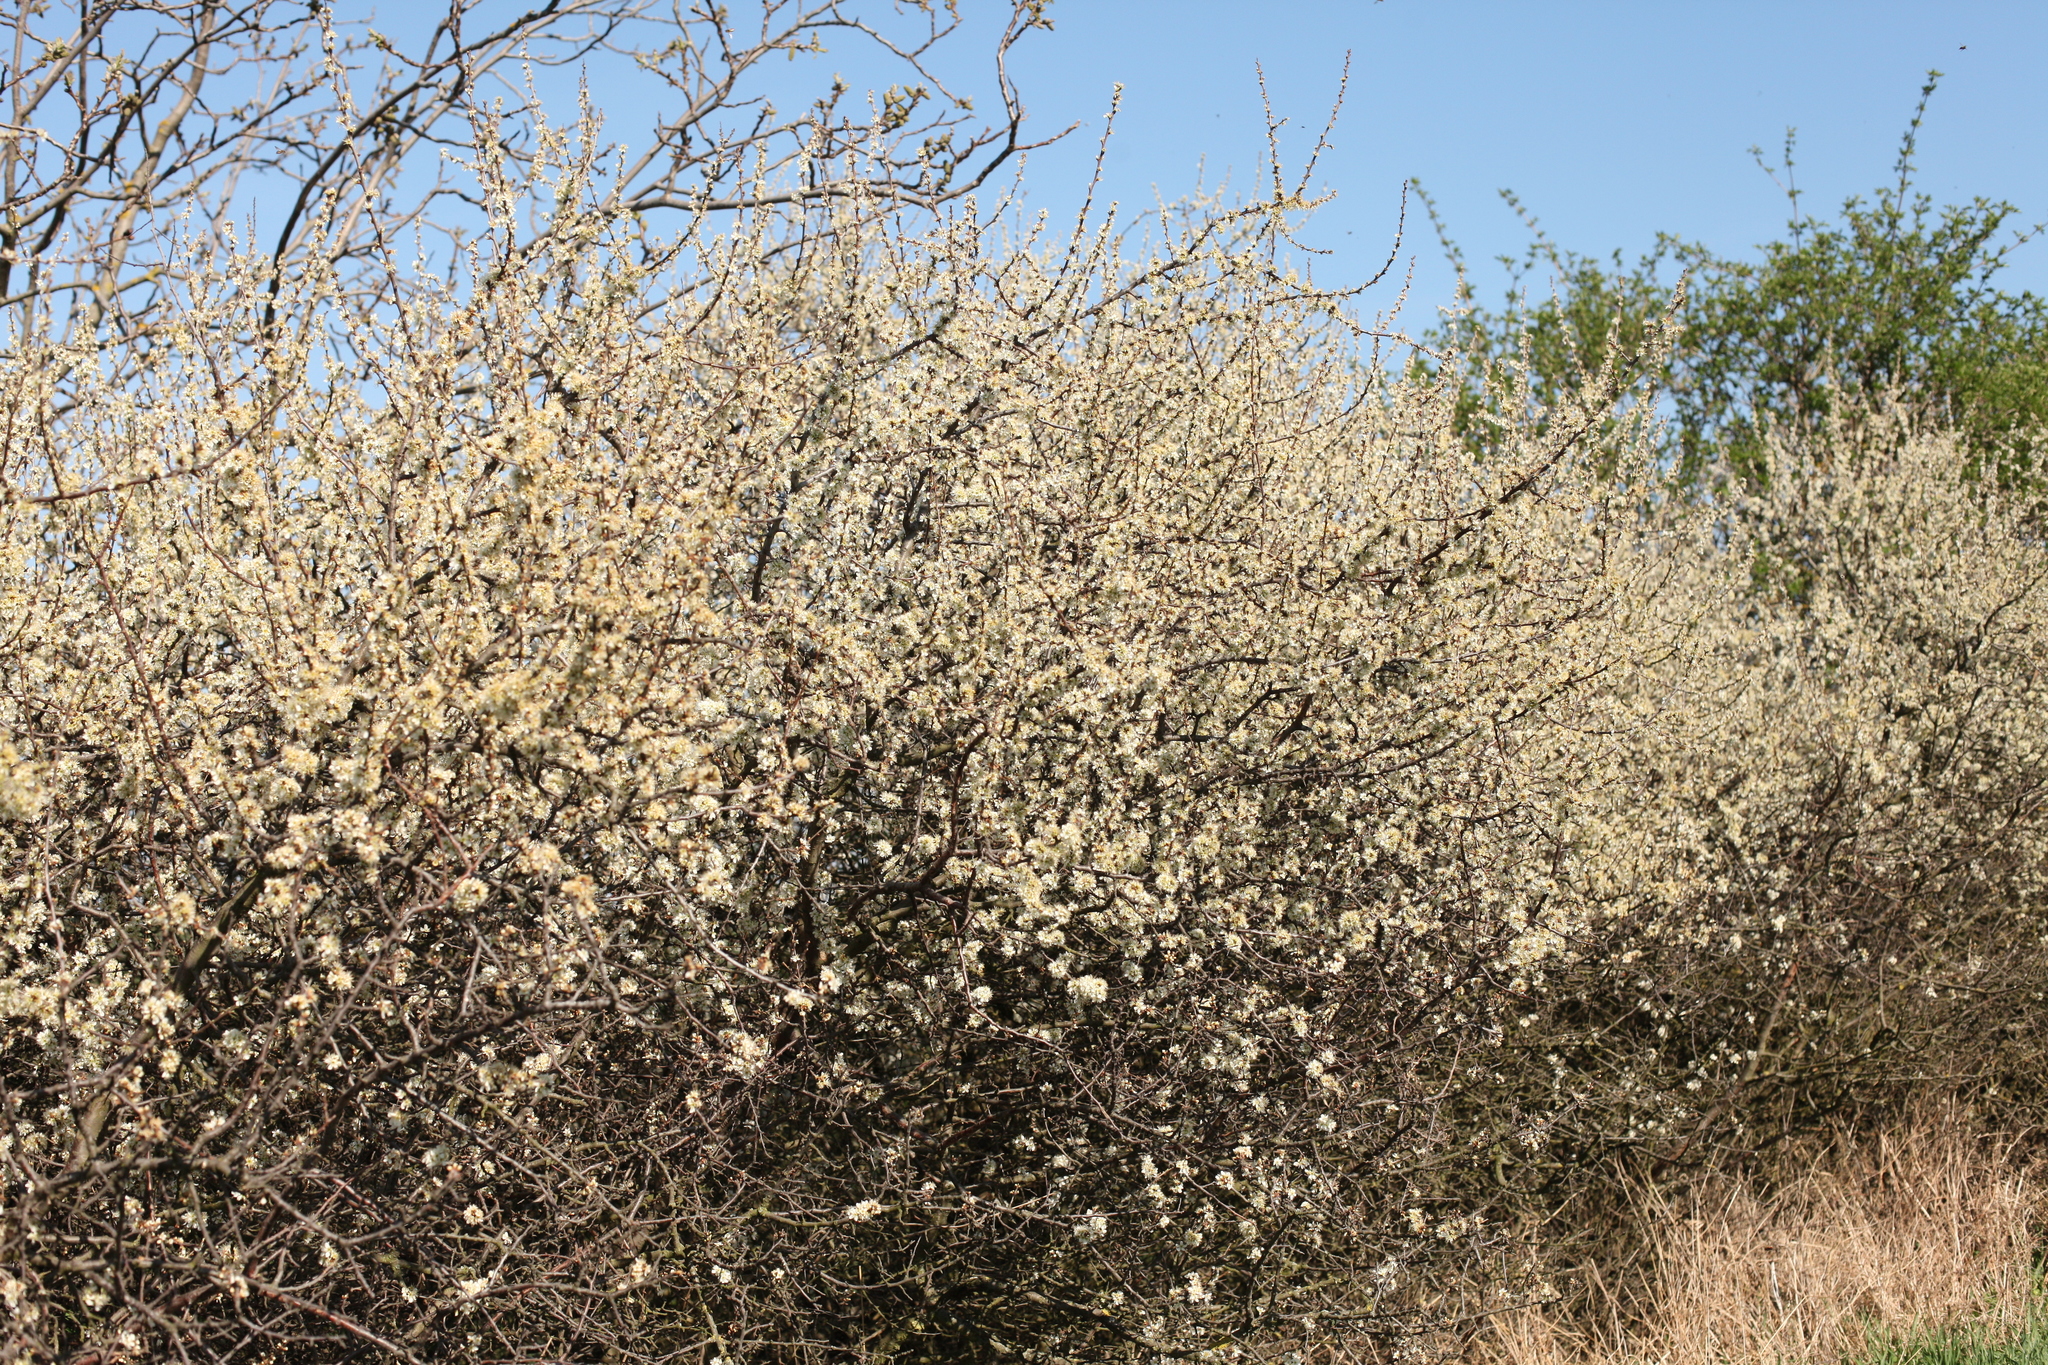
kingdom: Plantae
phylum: Tracheophyta
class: Magnoliopsida
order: Rosales
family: Rosaceae
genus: Prunus
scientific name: Prunus spinosa
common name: Blackthorn
